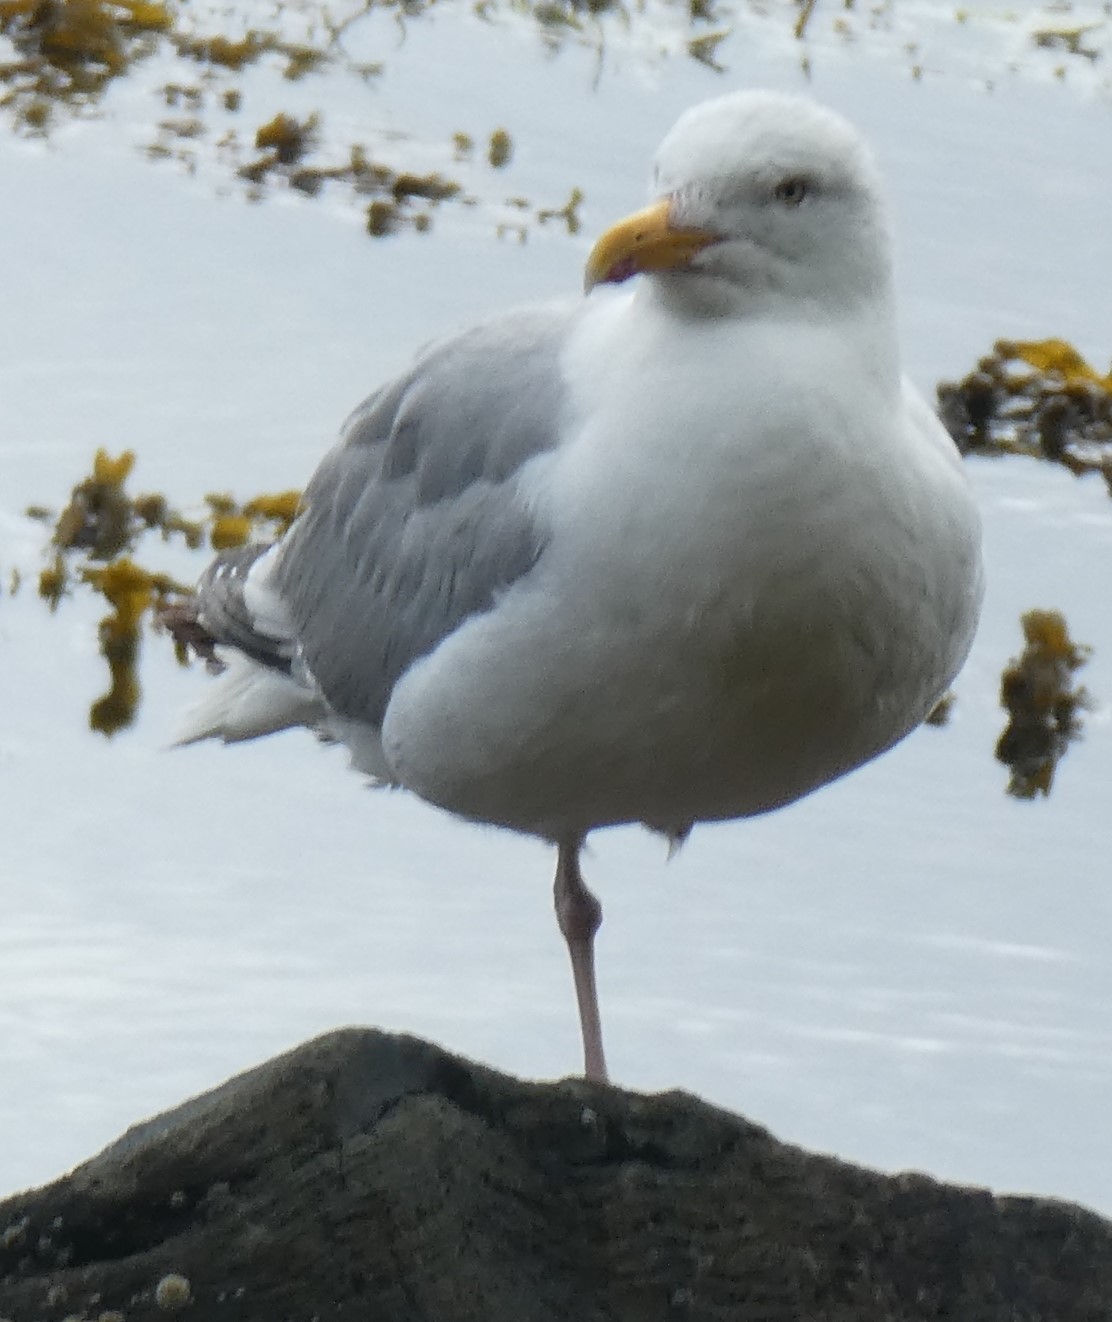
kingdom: Animalia
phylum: Chordata
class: Aves
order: Charadriiformes
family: Laridae
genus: Larus
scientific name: Larus argentatus
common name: Herring gull
